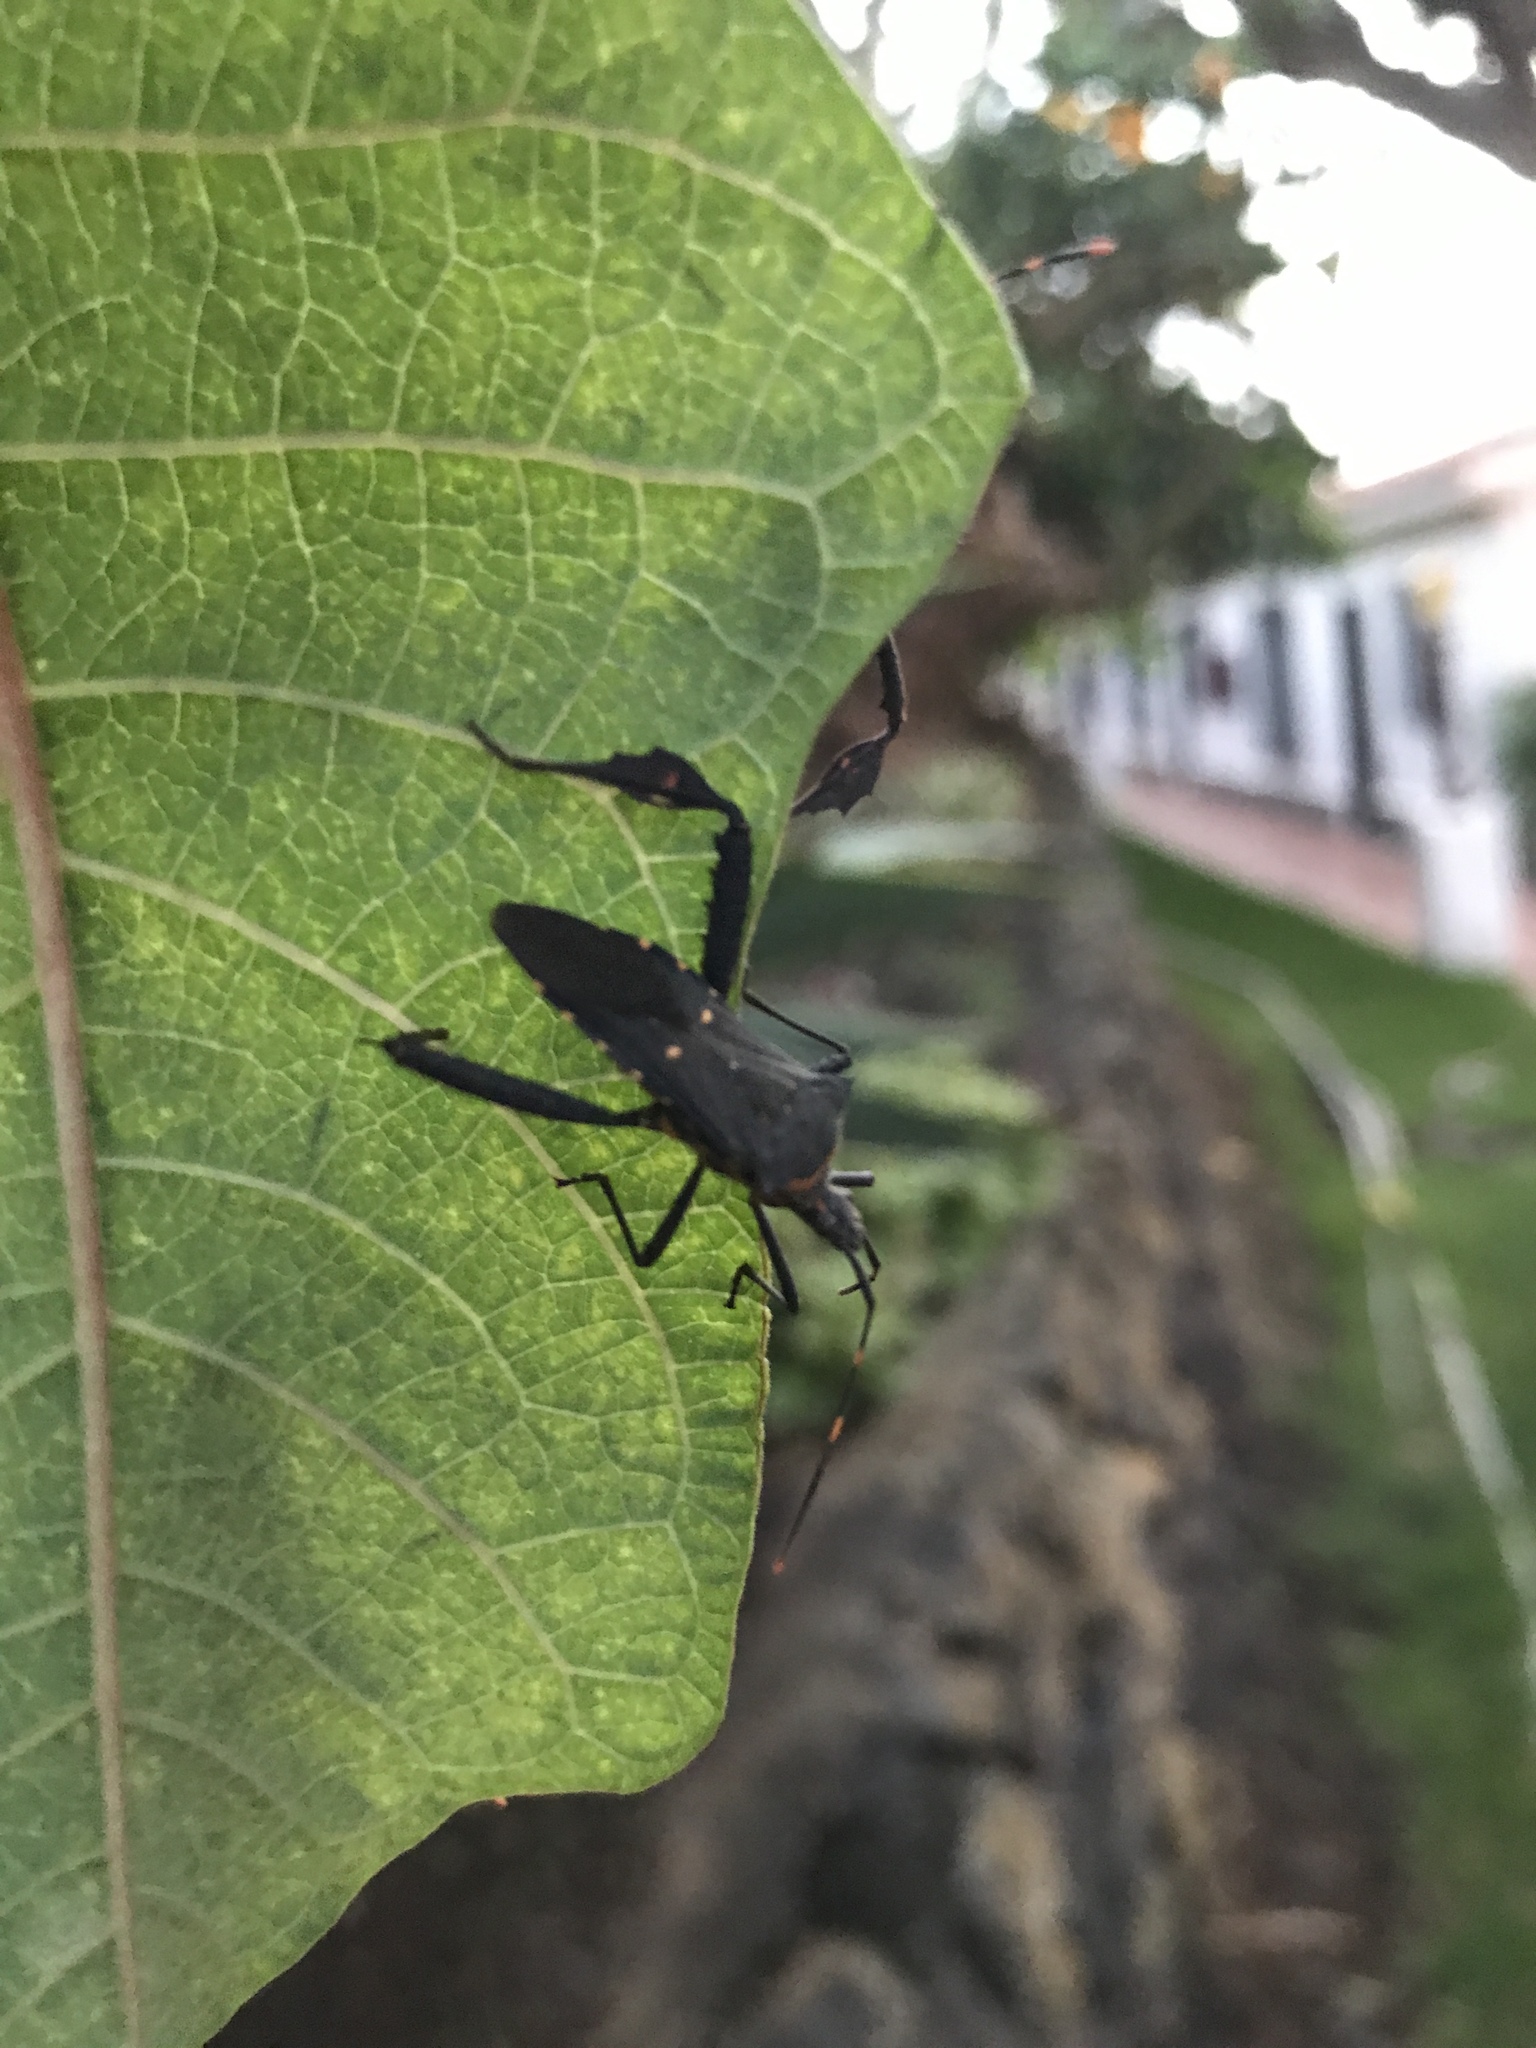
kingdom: Animalia
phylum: Arthropoda
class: Insecta
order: Hemiptera
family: Coreidae
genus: Leptoglossus
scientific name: Leptoglossus gonagra
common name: Citron bug
